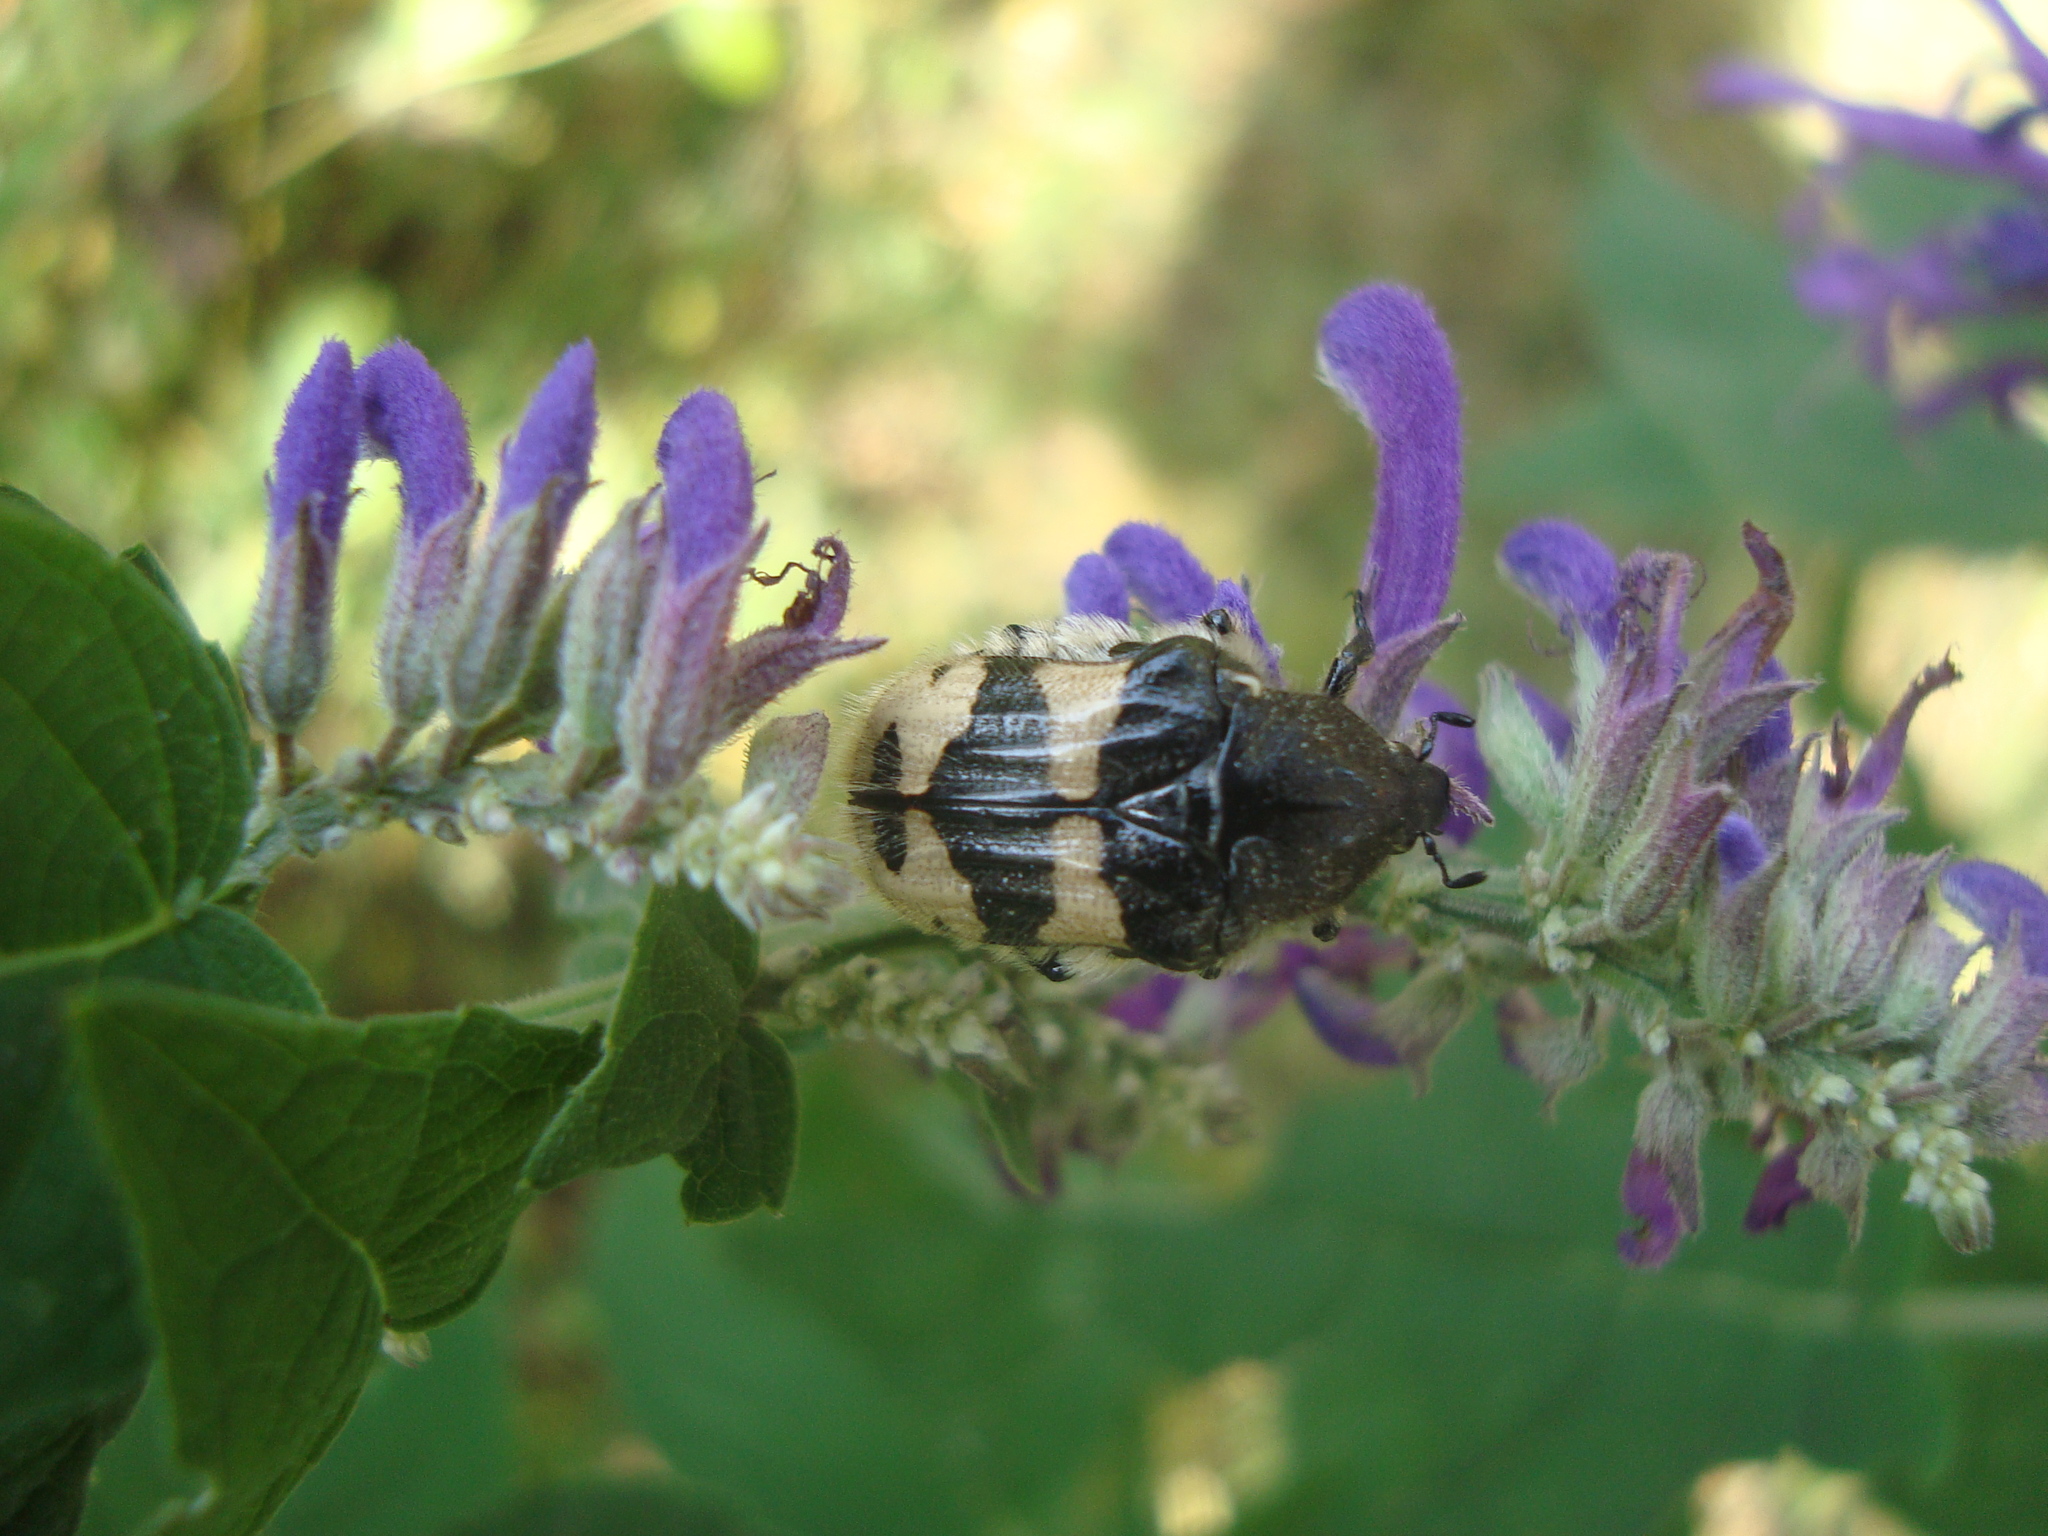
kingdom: Animalia
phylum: Arthropoda
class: Insecta
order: Coleoptera
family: Scarabaeidae
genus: Euphoria
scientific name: Euphoria basalis
